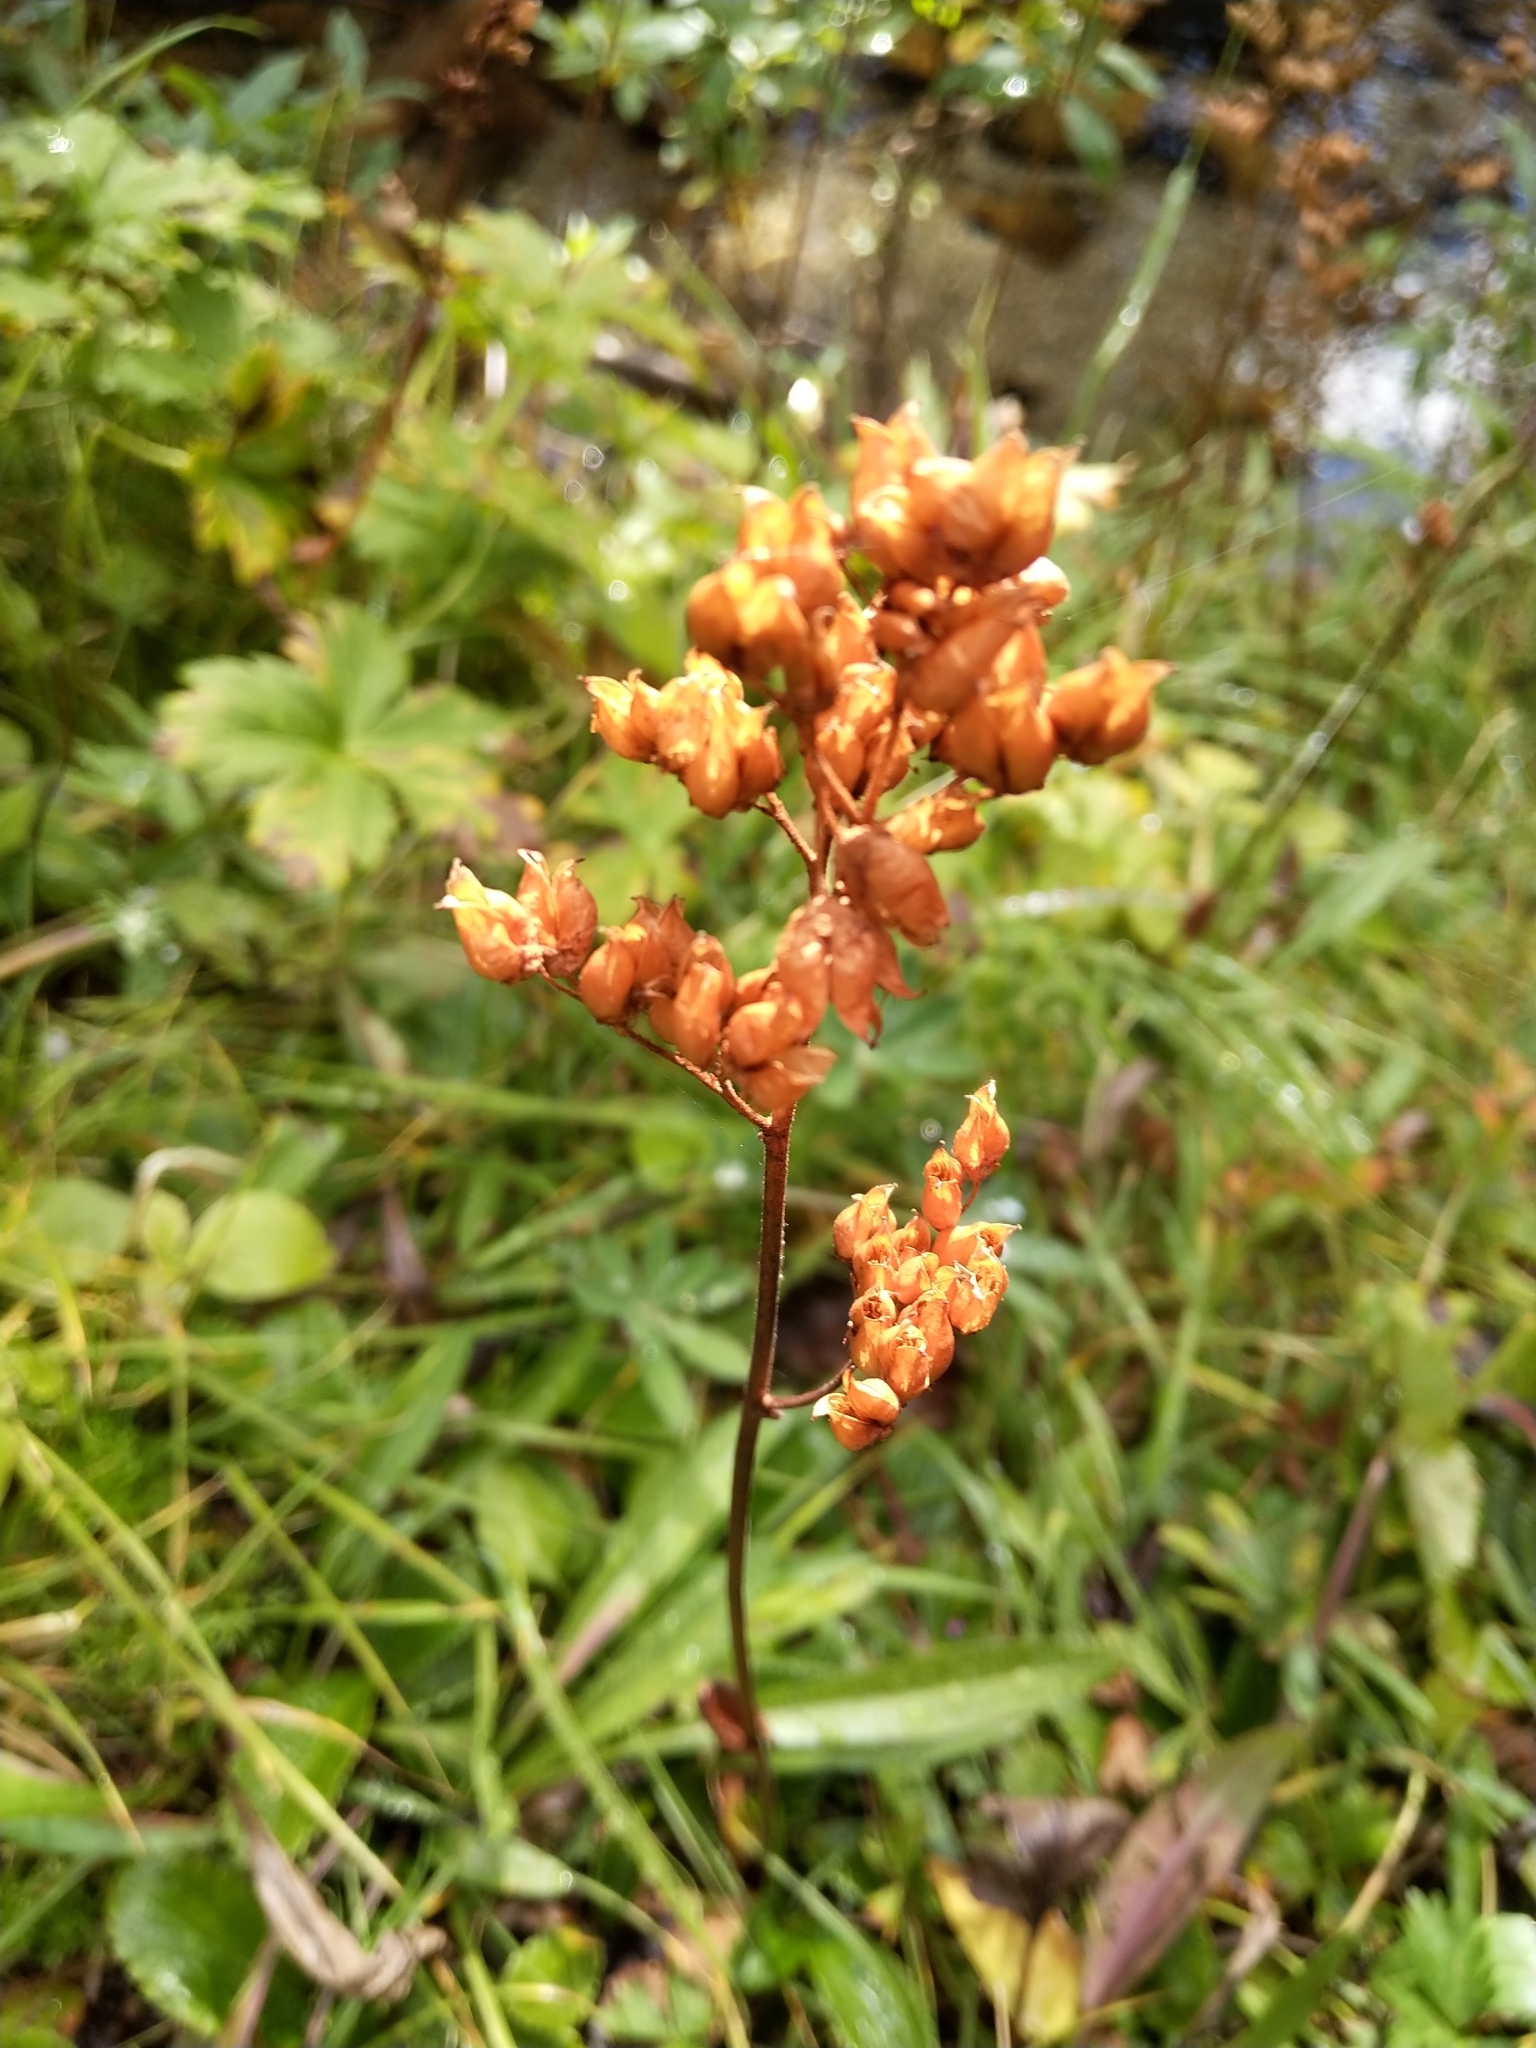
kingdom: Plantae
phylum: Tracheophyta
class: Magnoliopsida
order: Saxifragales
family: Saxifragaceae
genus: Leptarrhena
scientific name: Leptarrhena pyrolifolia
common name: Leatherleaf-saxifrage
